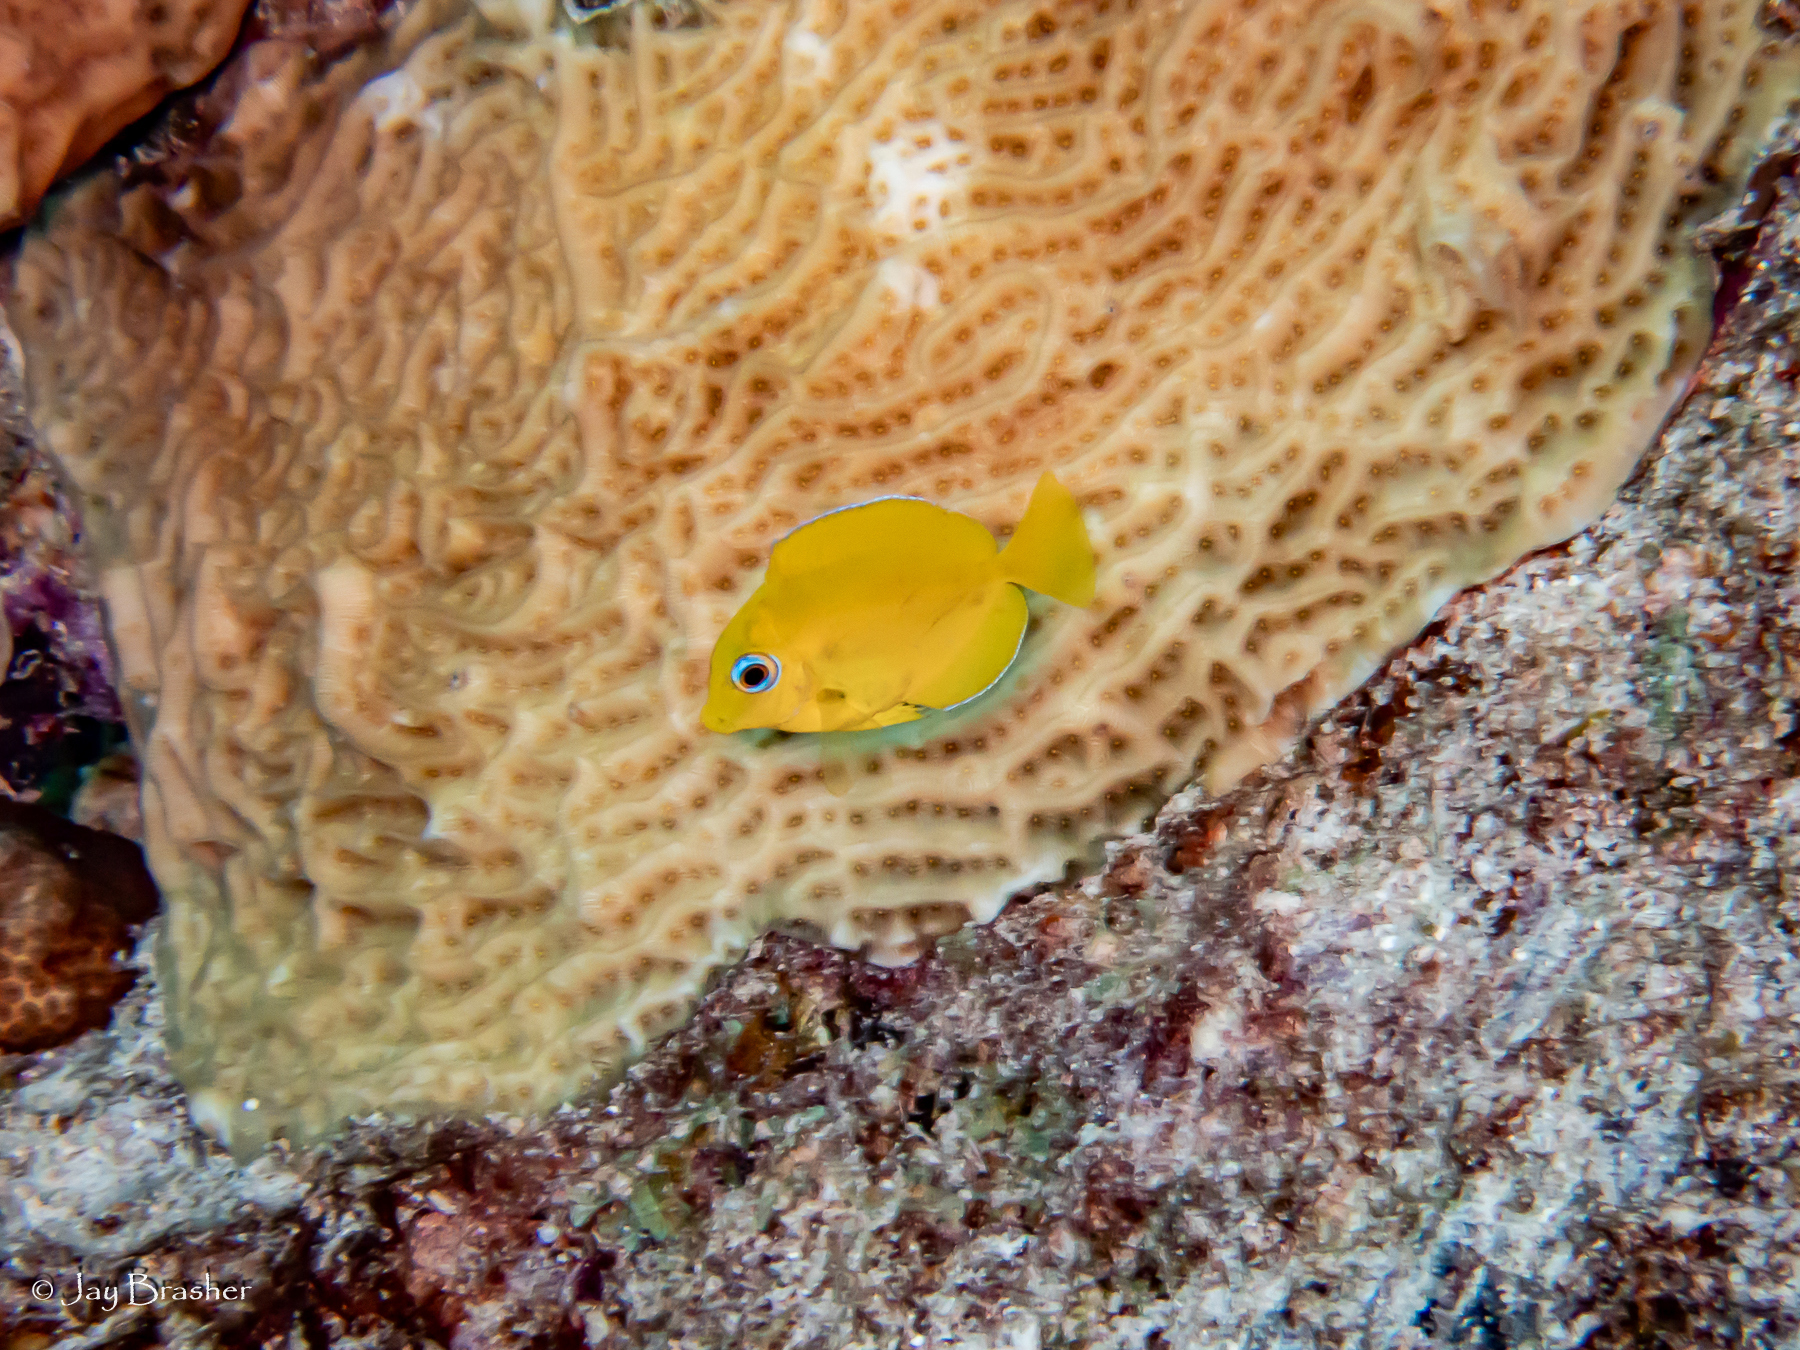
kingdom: Animalia
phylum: Chordata
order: Perciformes
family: Acanthuridae
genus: Acanthurus
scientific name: Acanthurus coeruleus
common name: Blue tang
